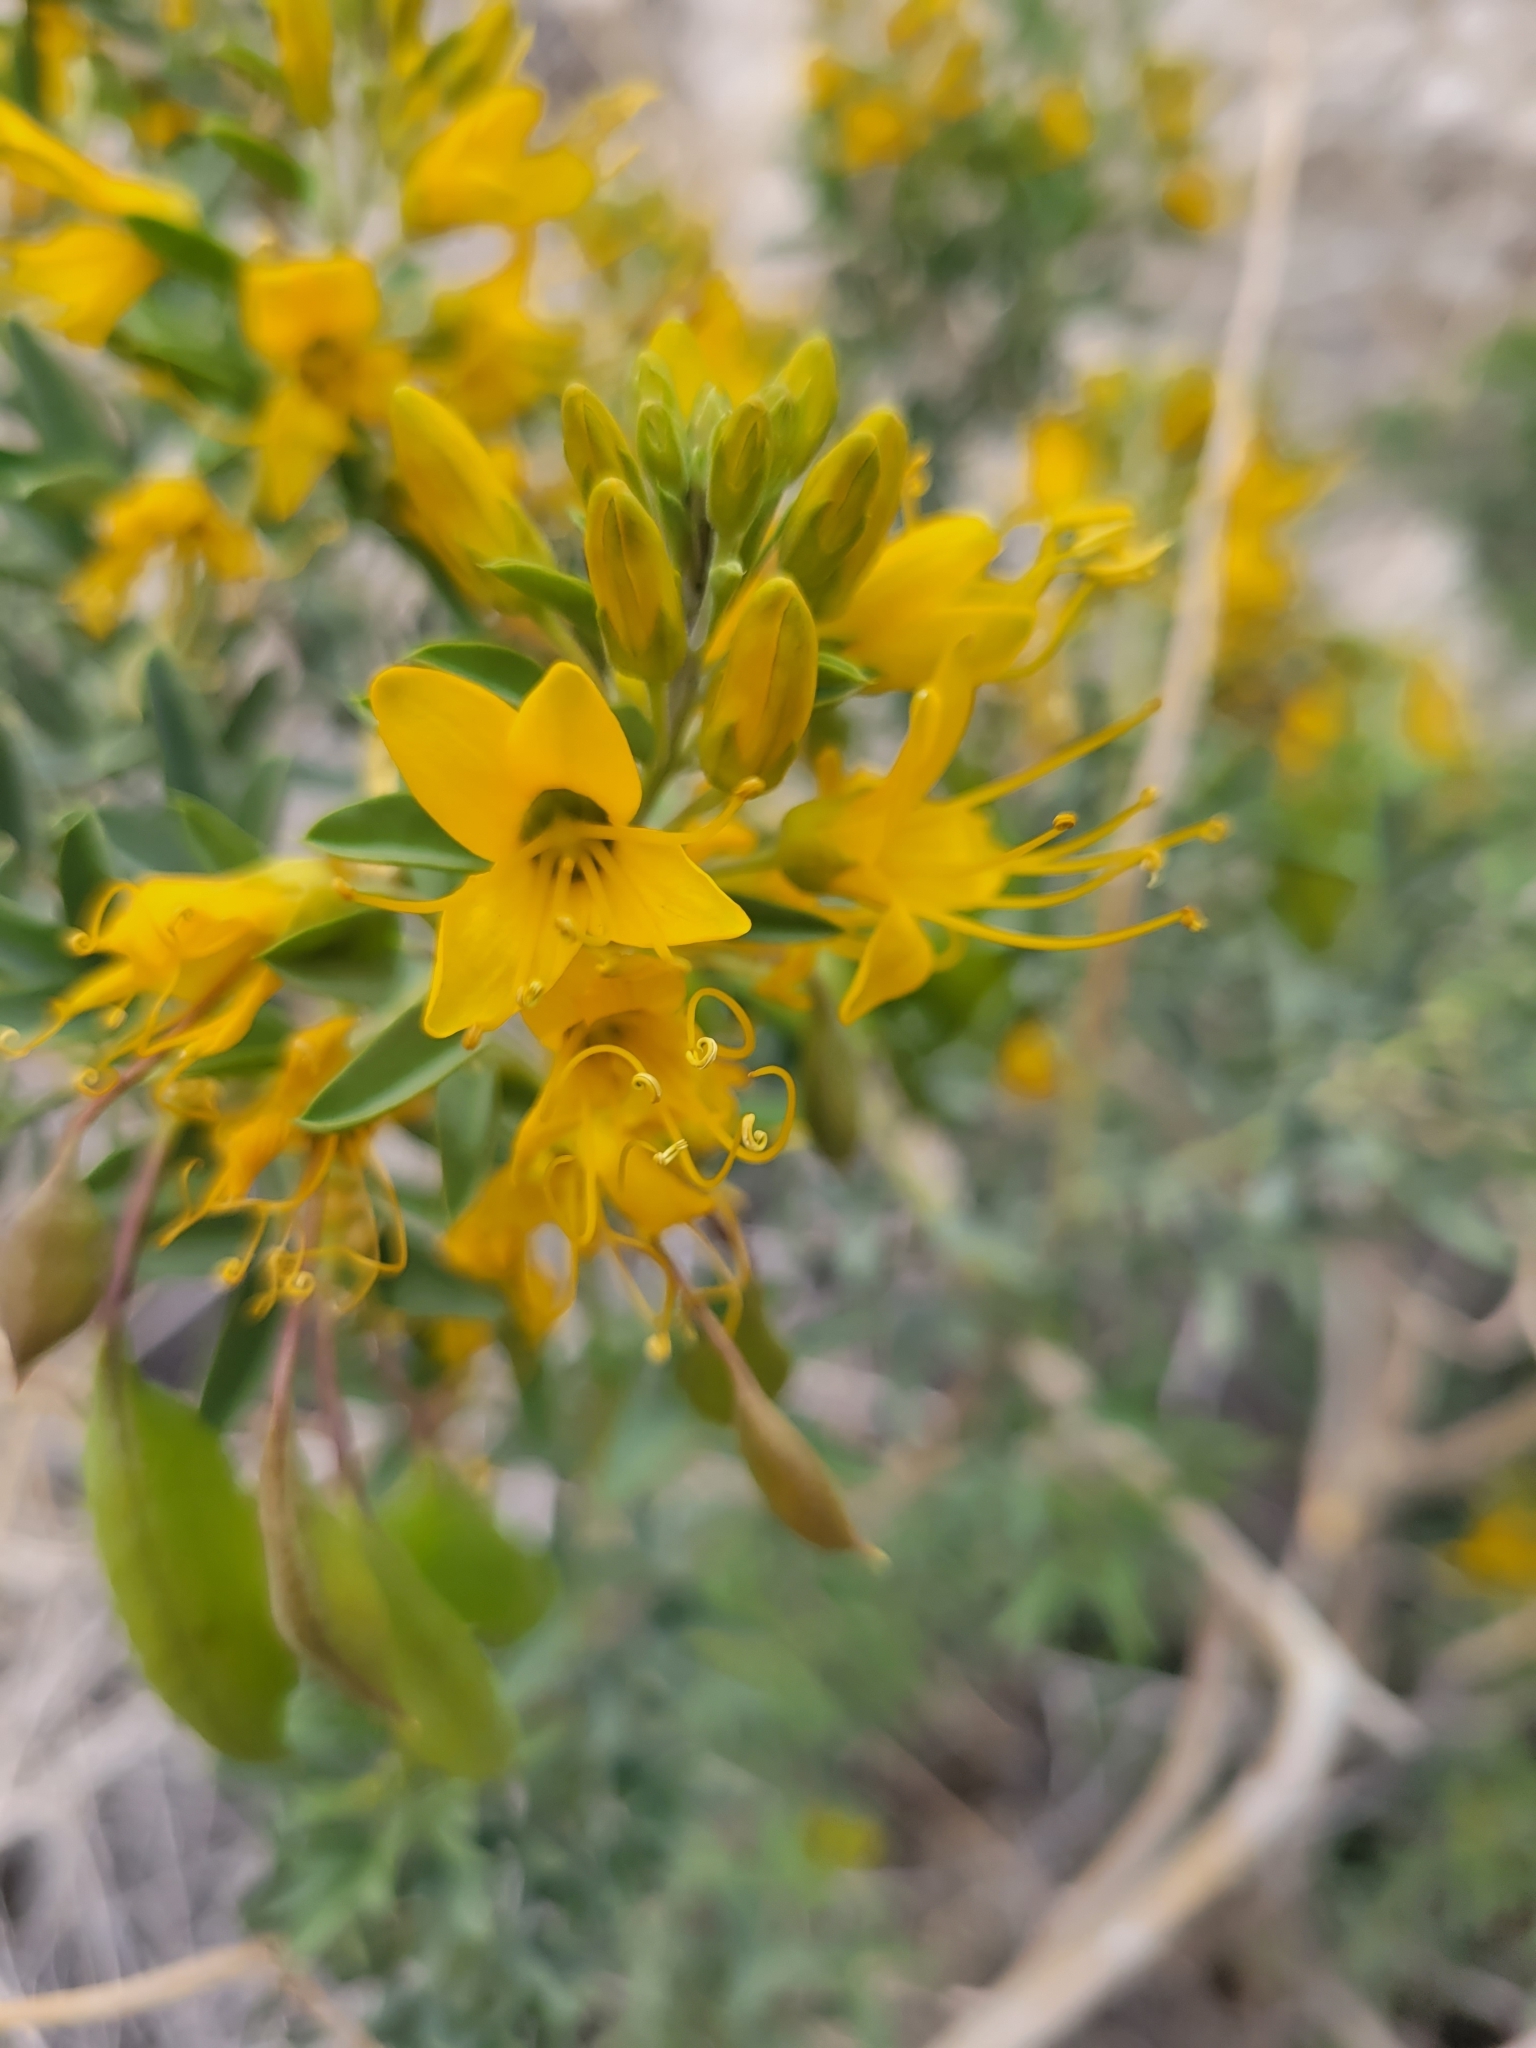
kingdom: Plantae
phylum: Tracheophyta
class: Magnoliopsida
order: Brassicales
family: Cleomaceae
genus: Cleomella
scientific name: Cleomella arborea
